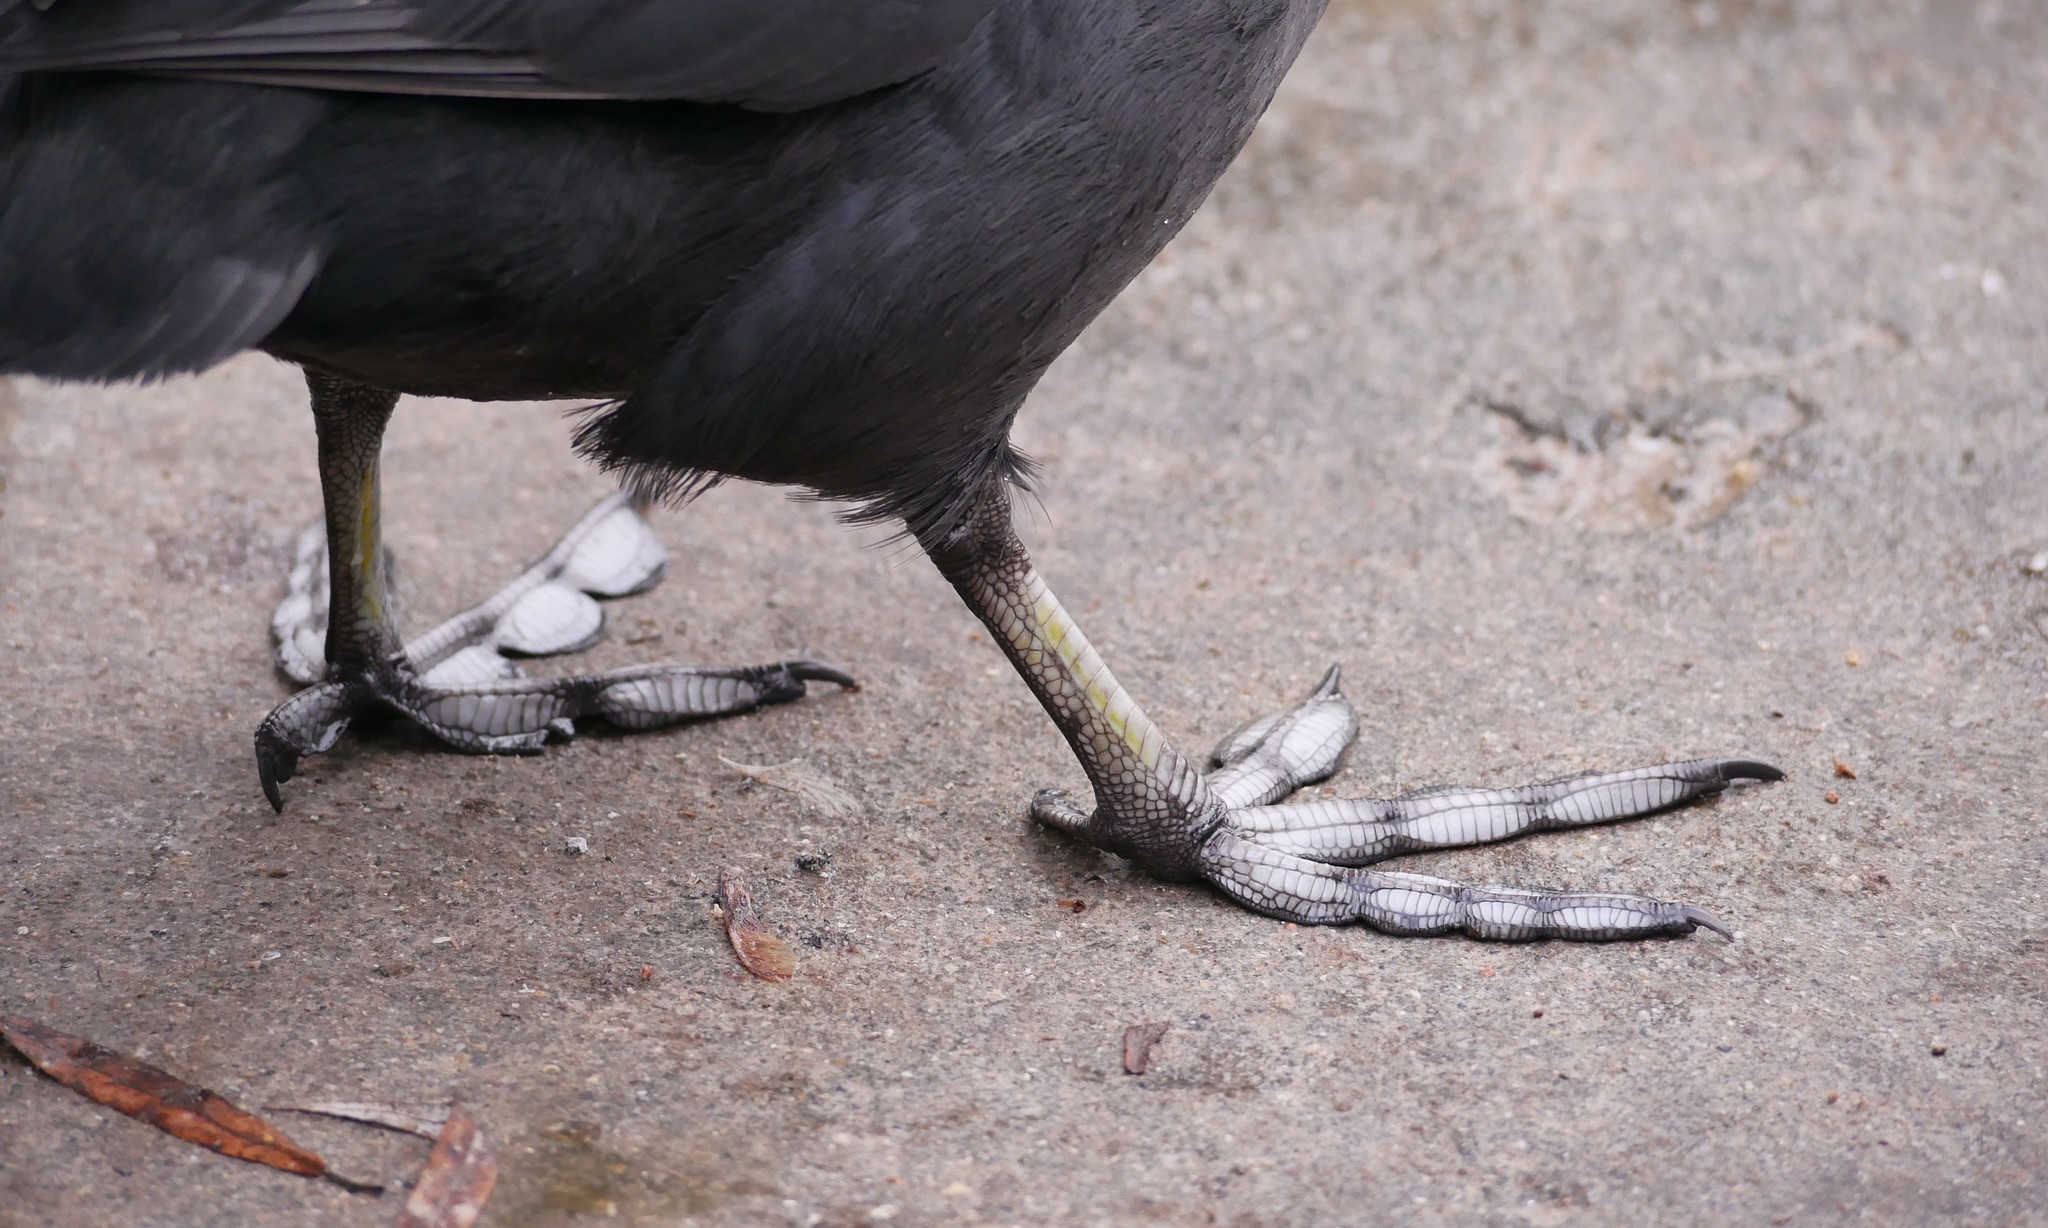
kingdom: Animalia
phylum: Chordata
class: Aves
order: Gruiformes
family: Rallidae
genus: Fulica
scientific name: Fulica atra
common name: Eurasian coot
